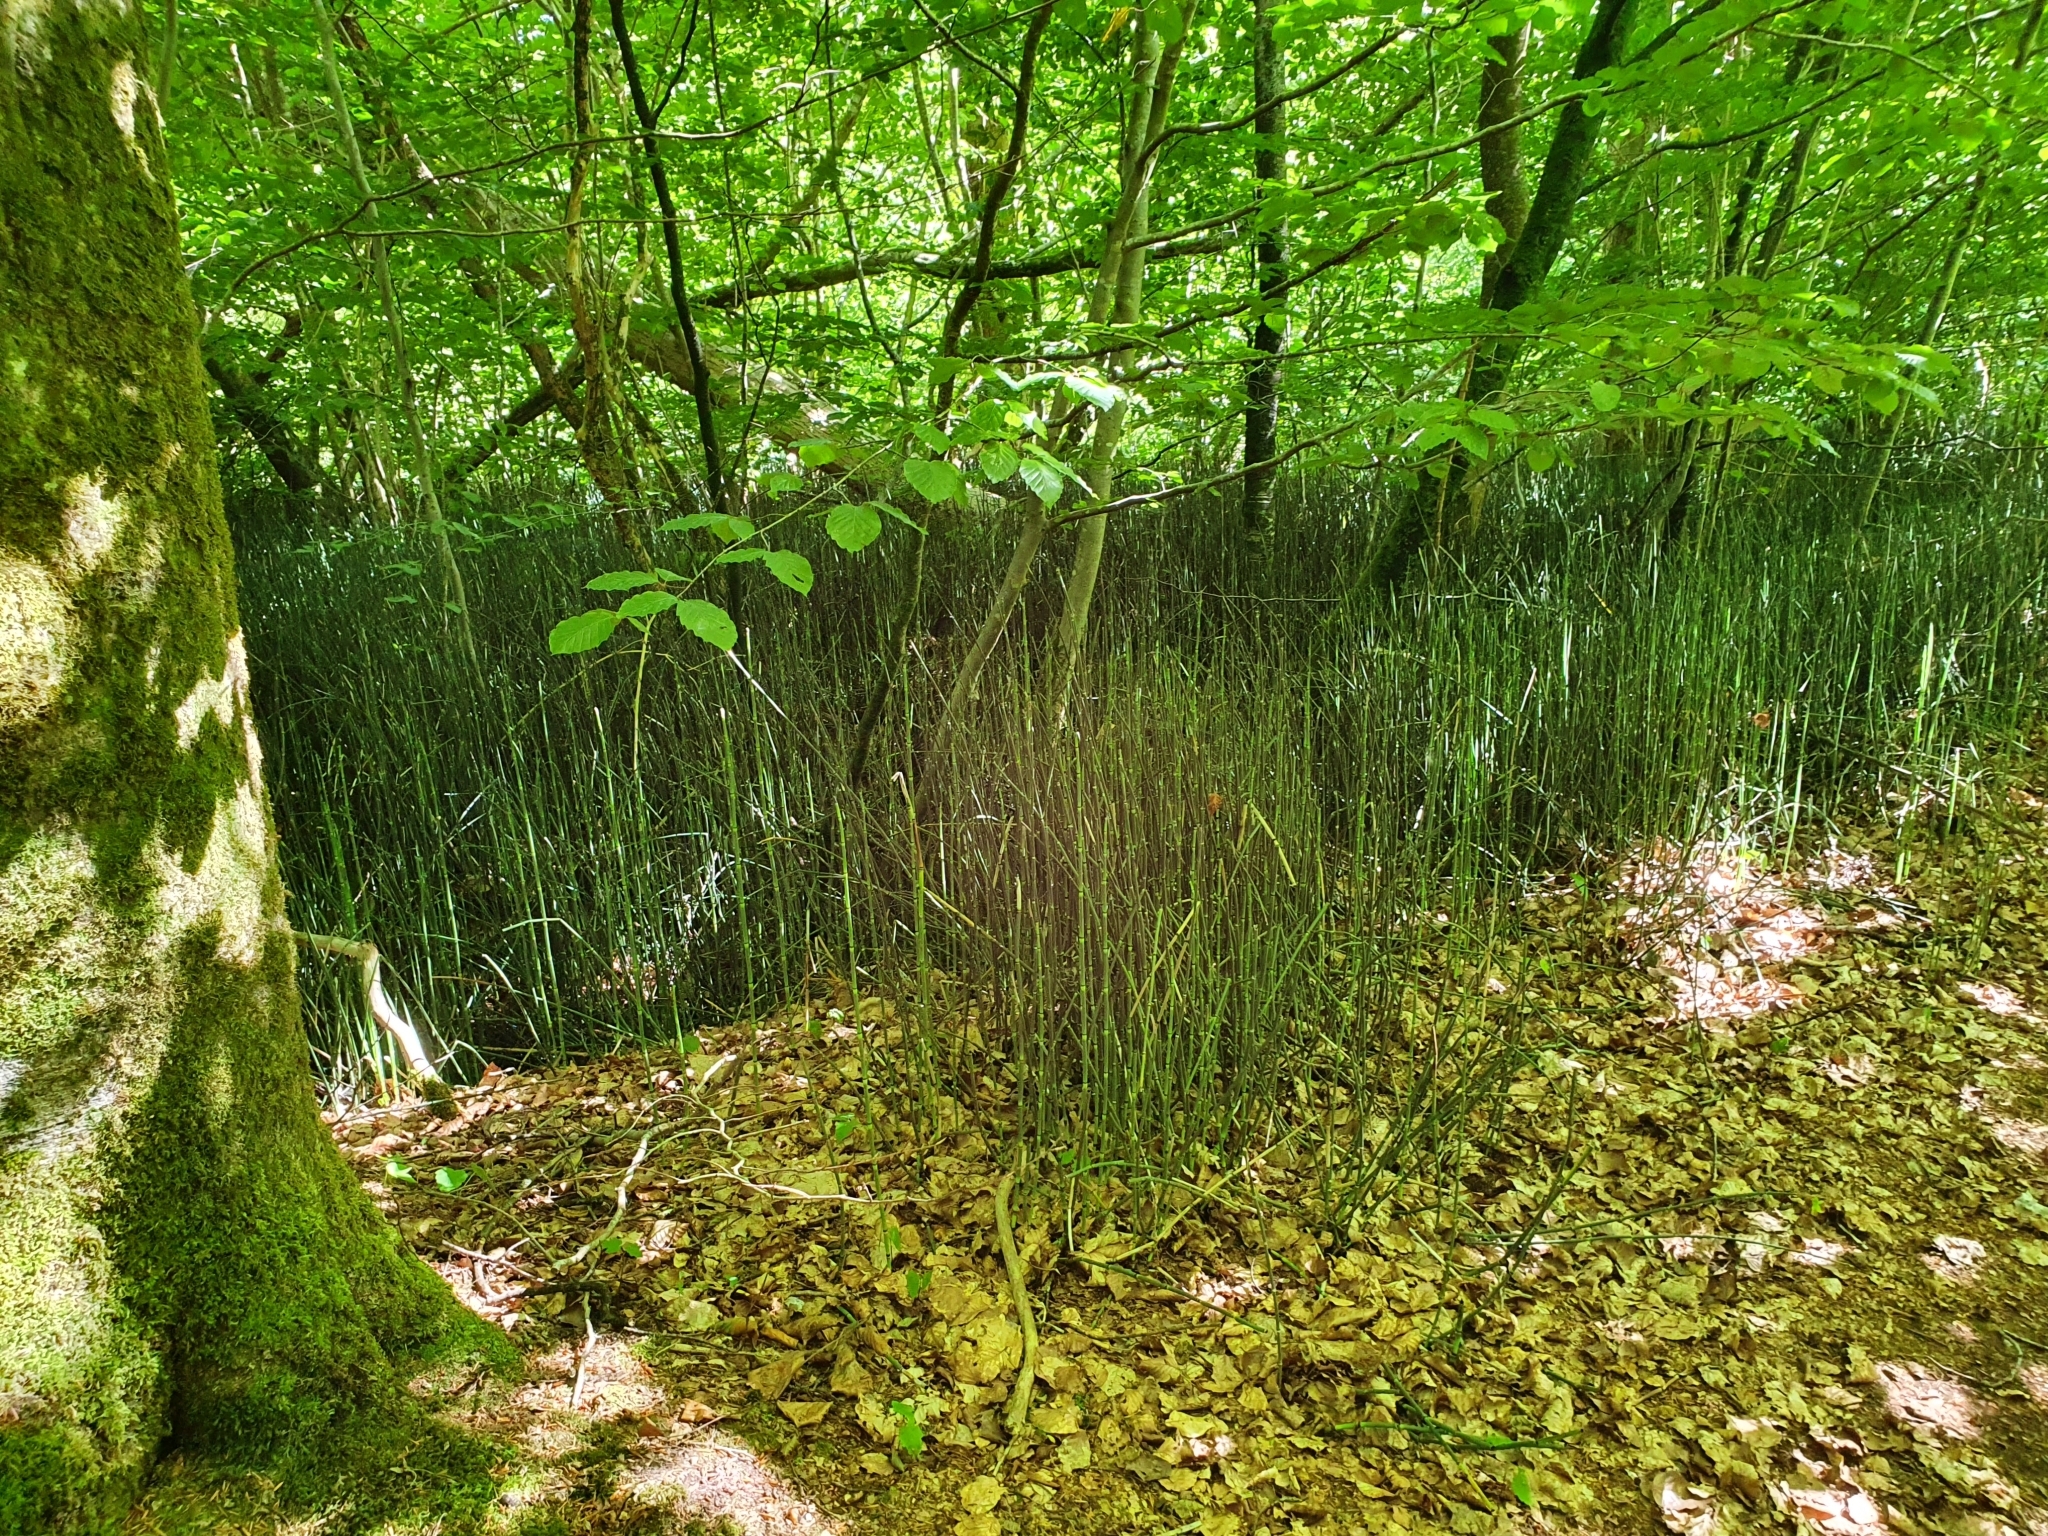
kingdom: Plantae
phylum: Tracheophyta
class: Polypodiopsida
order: Equisetales
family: Equisetaceae
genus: Equisetum
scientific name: Equisetum hyemale
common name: Rough horsetail
